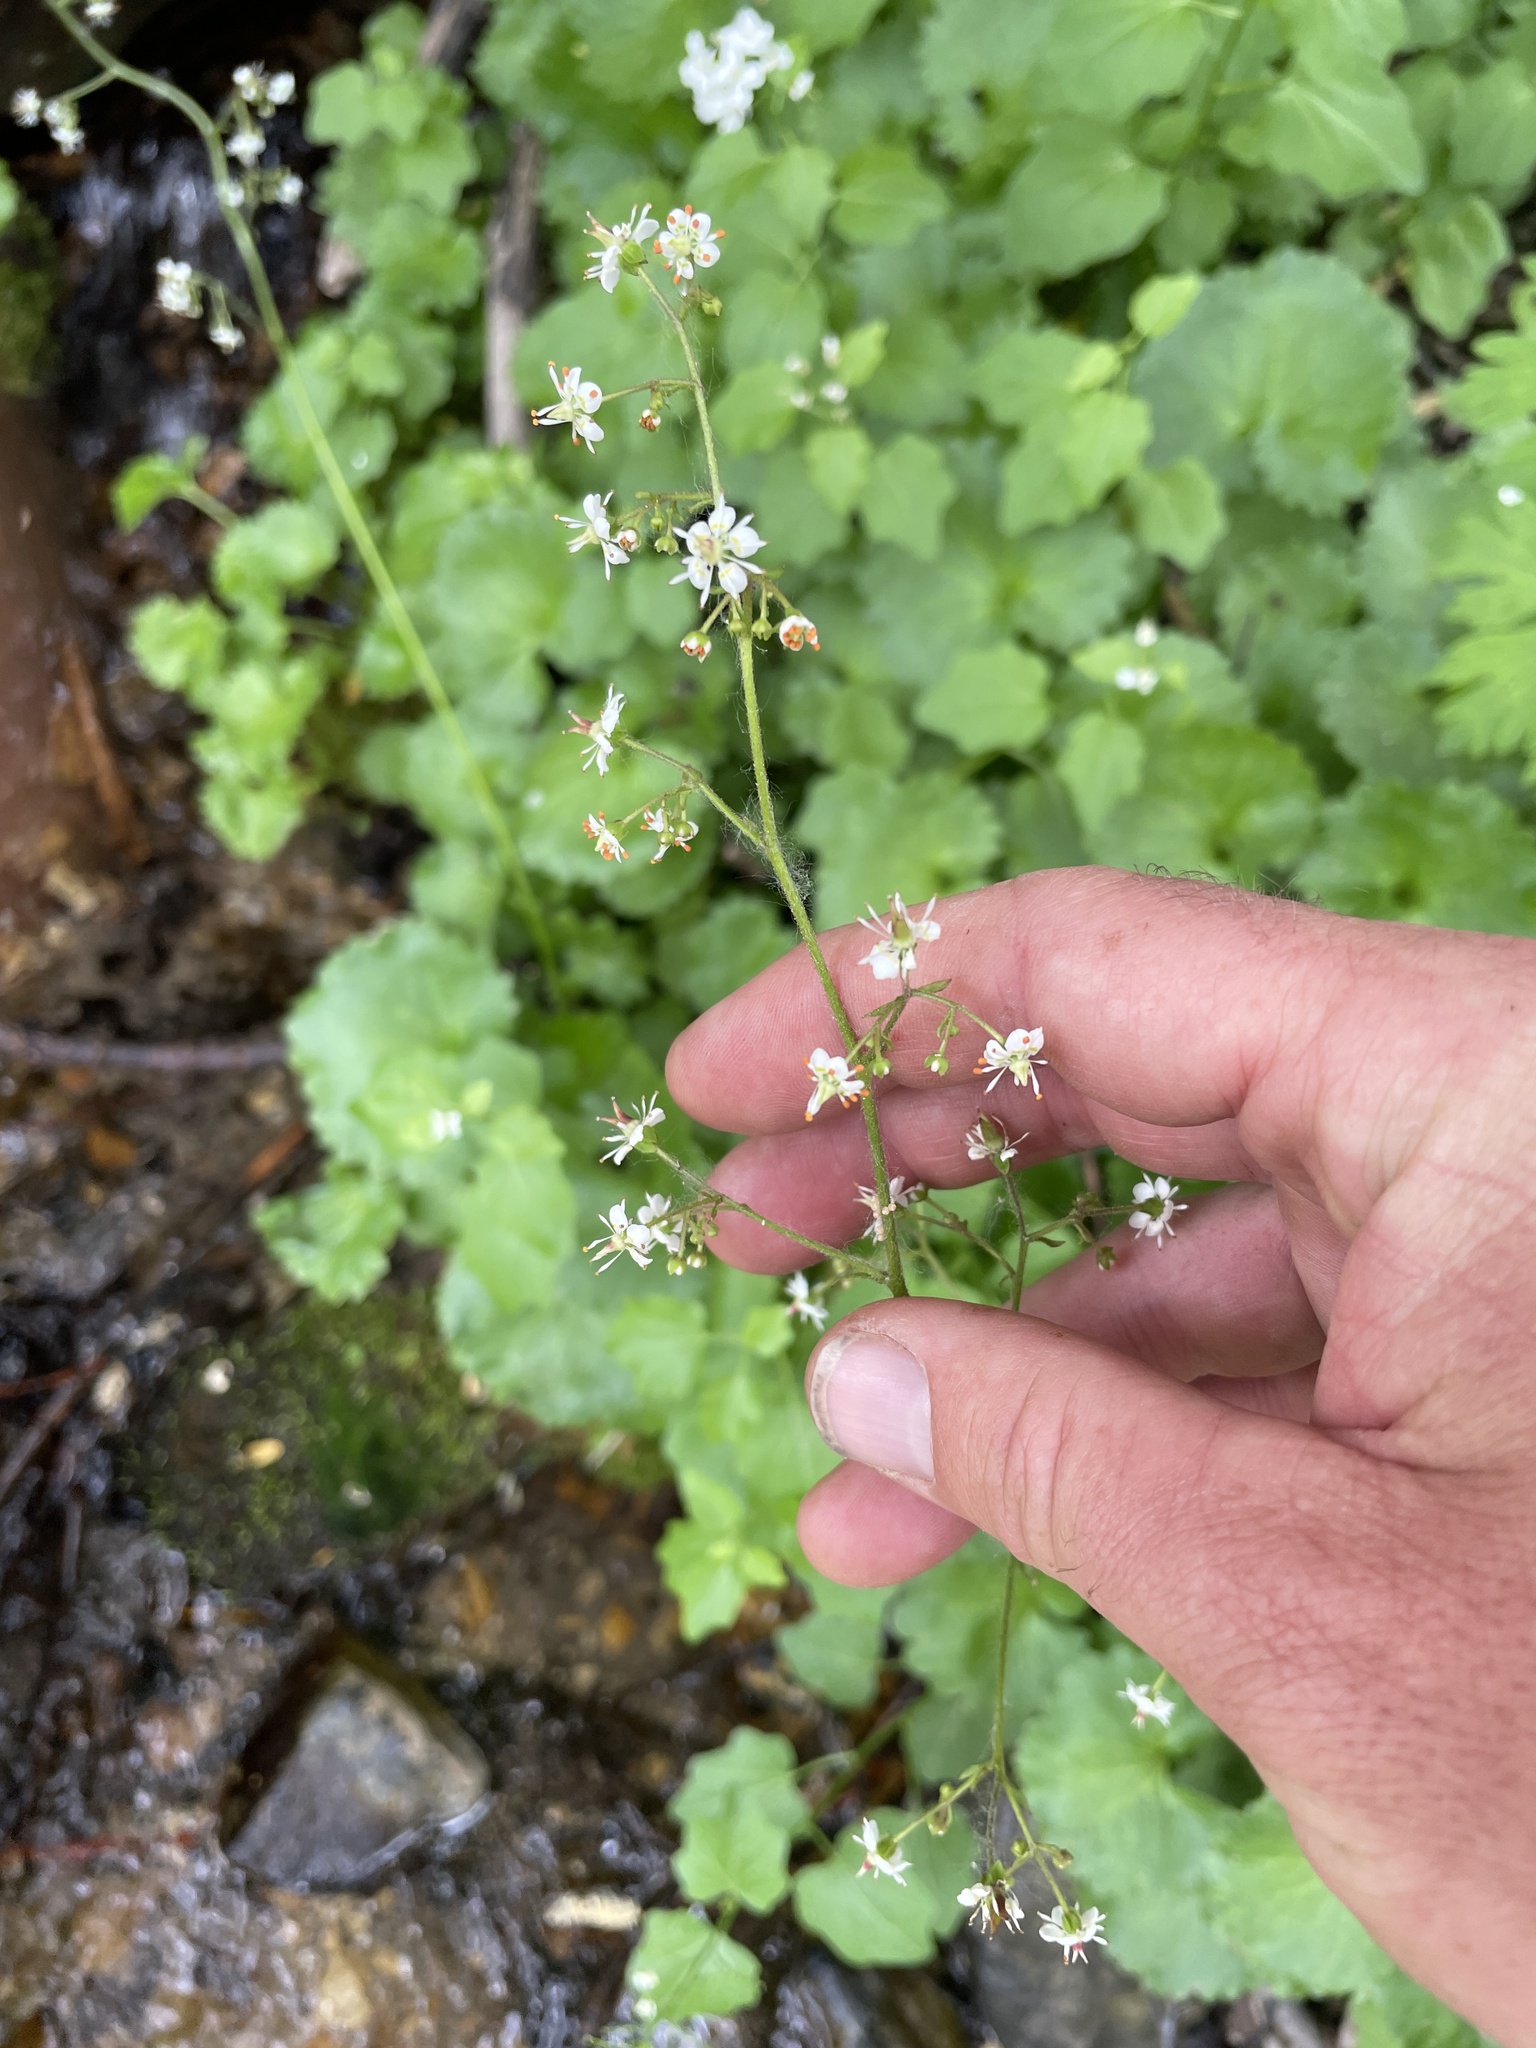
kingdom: Plantae
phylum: Tracheophyta
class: Magnoliopsida
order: Saxifragales
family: Saxifragaceae
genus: Micranthes
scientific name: Micranthes odontoloma
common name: Brook saxifrage
